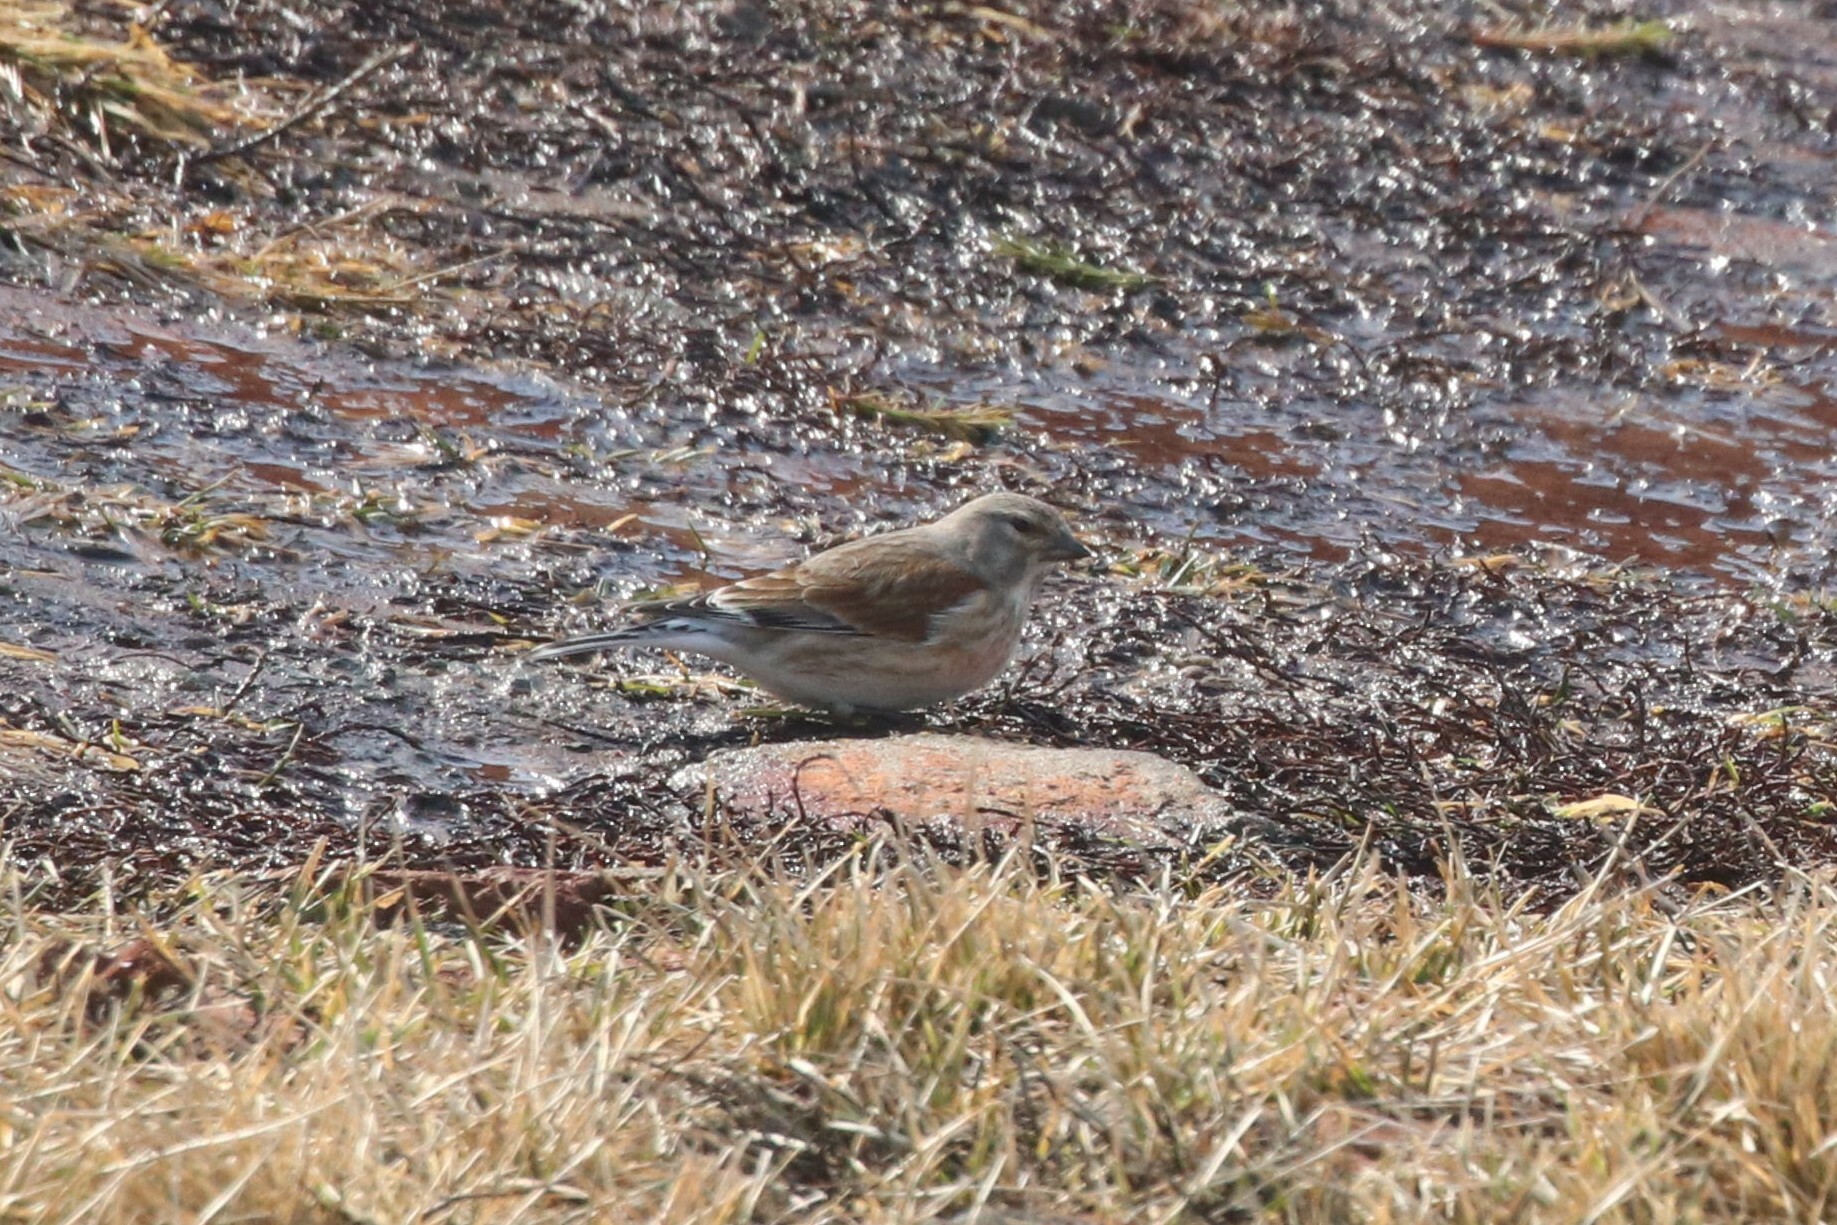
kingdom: Animalia
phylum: Chordata
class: Aves
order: Passeriformes
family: Fringillidae
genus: Linaria
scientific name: Linaria cannabina
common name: Common linnet
